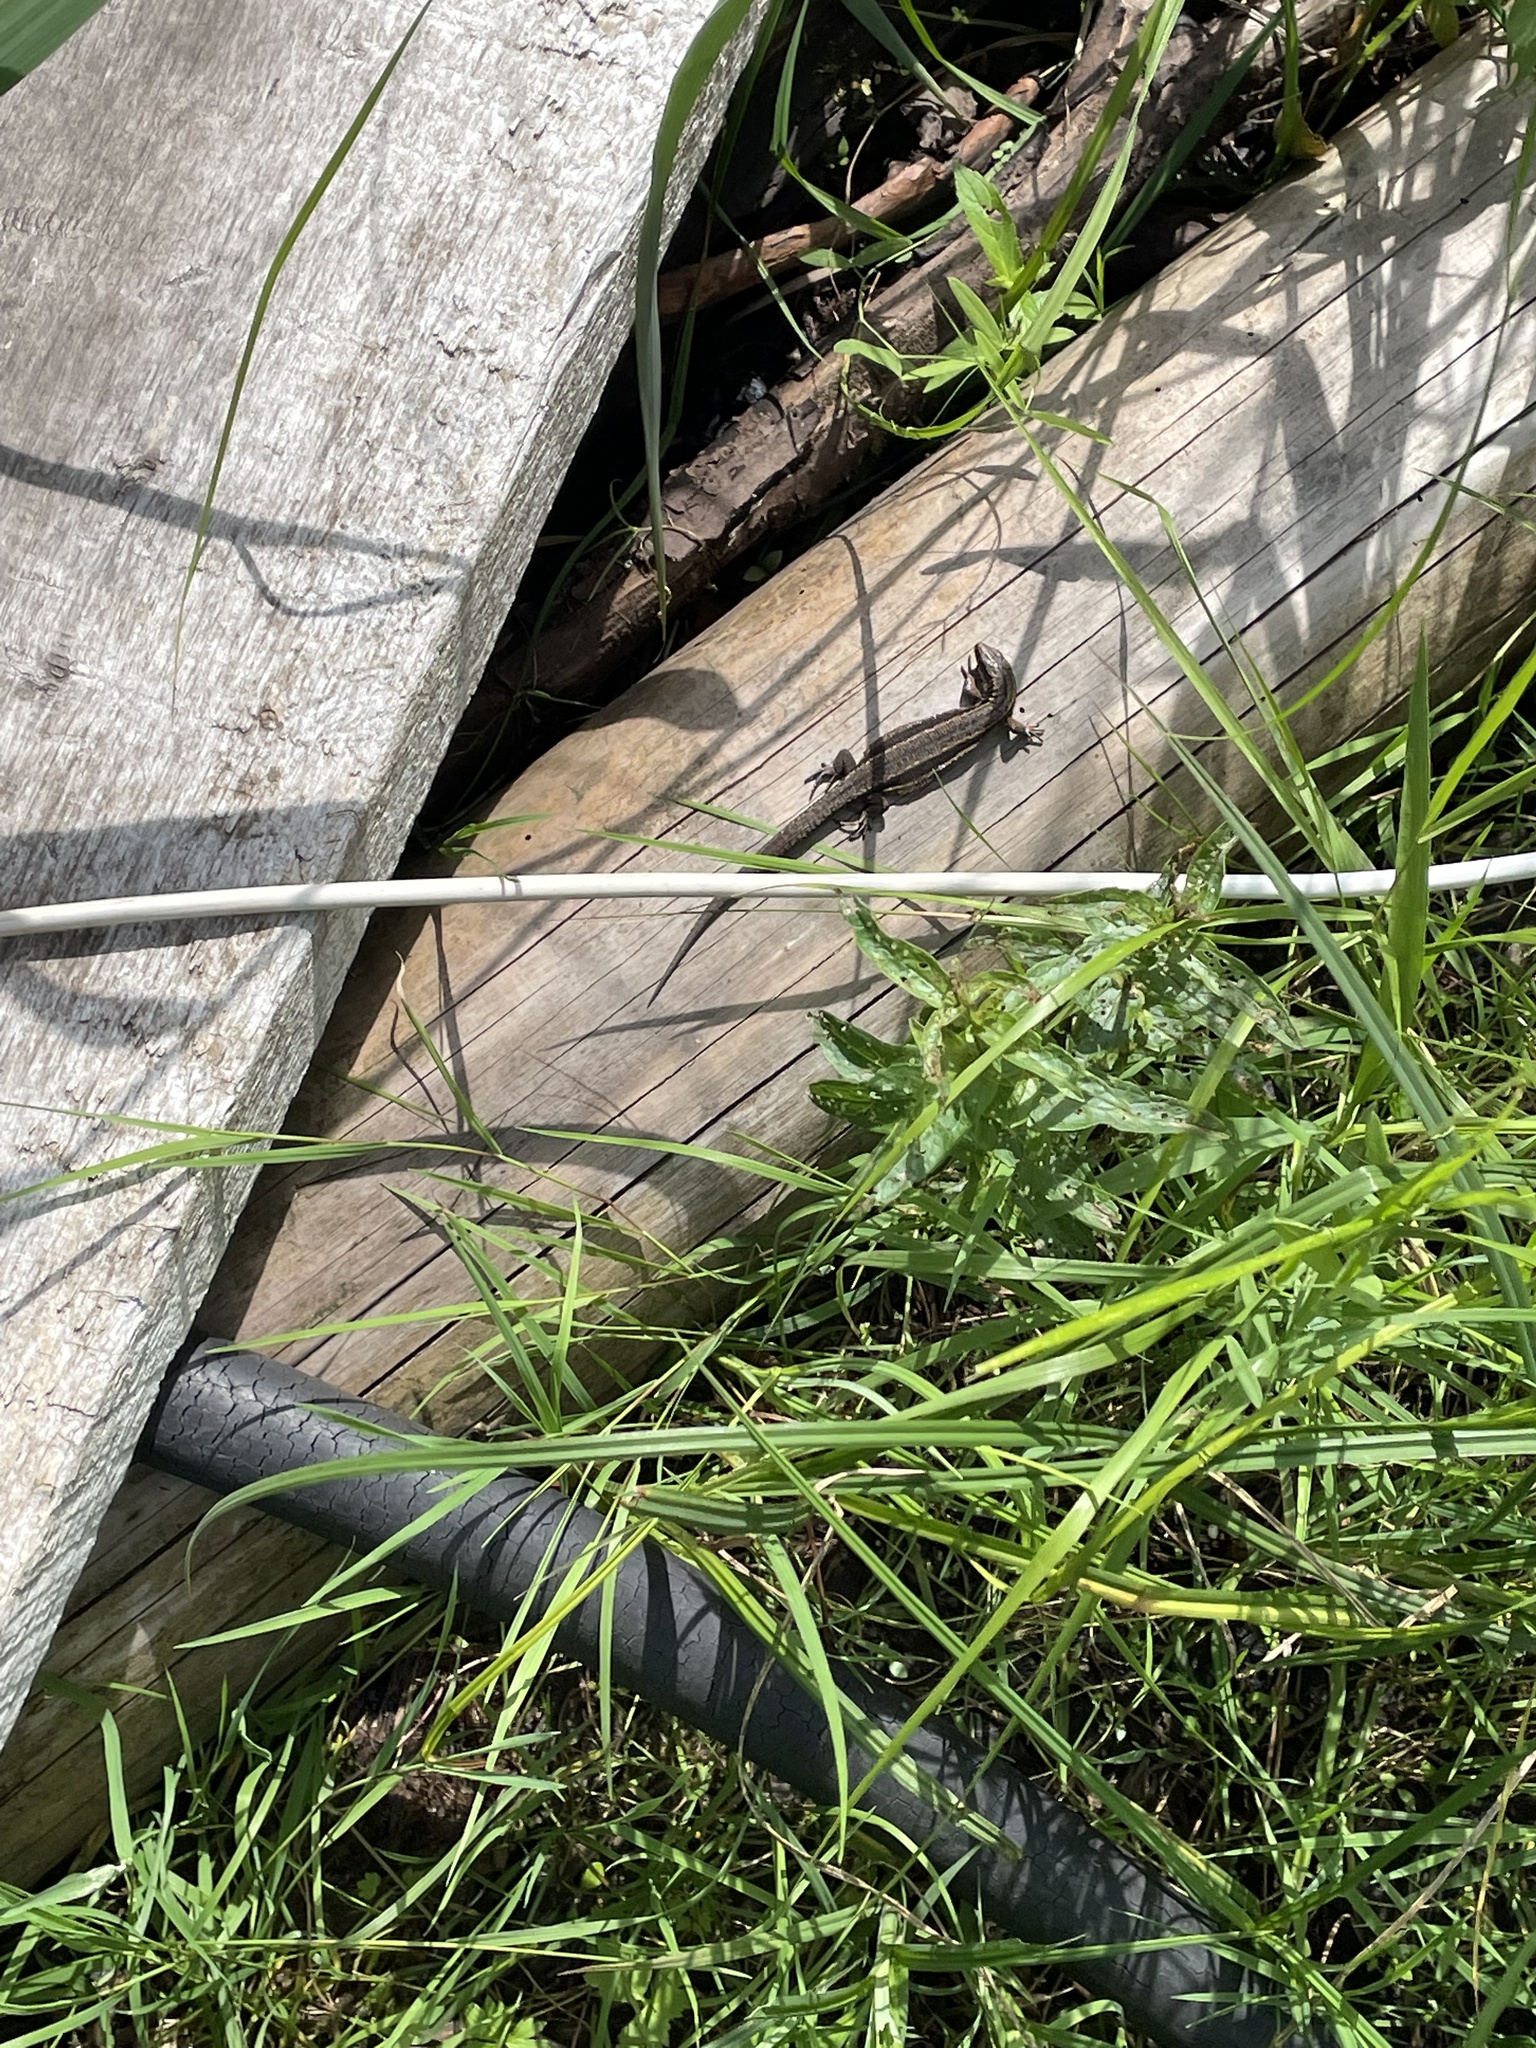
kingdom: Animalia
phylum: Chordata
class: Squamata
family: Lacertidae
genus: Zootoca
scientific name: Zootoca vivipara
